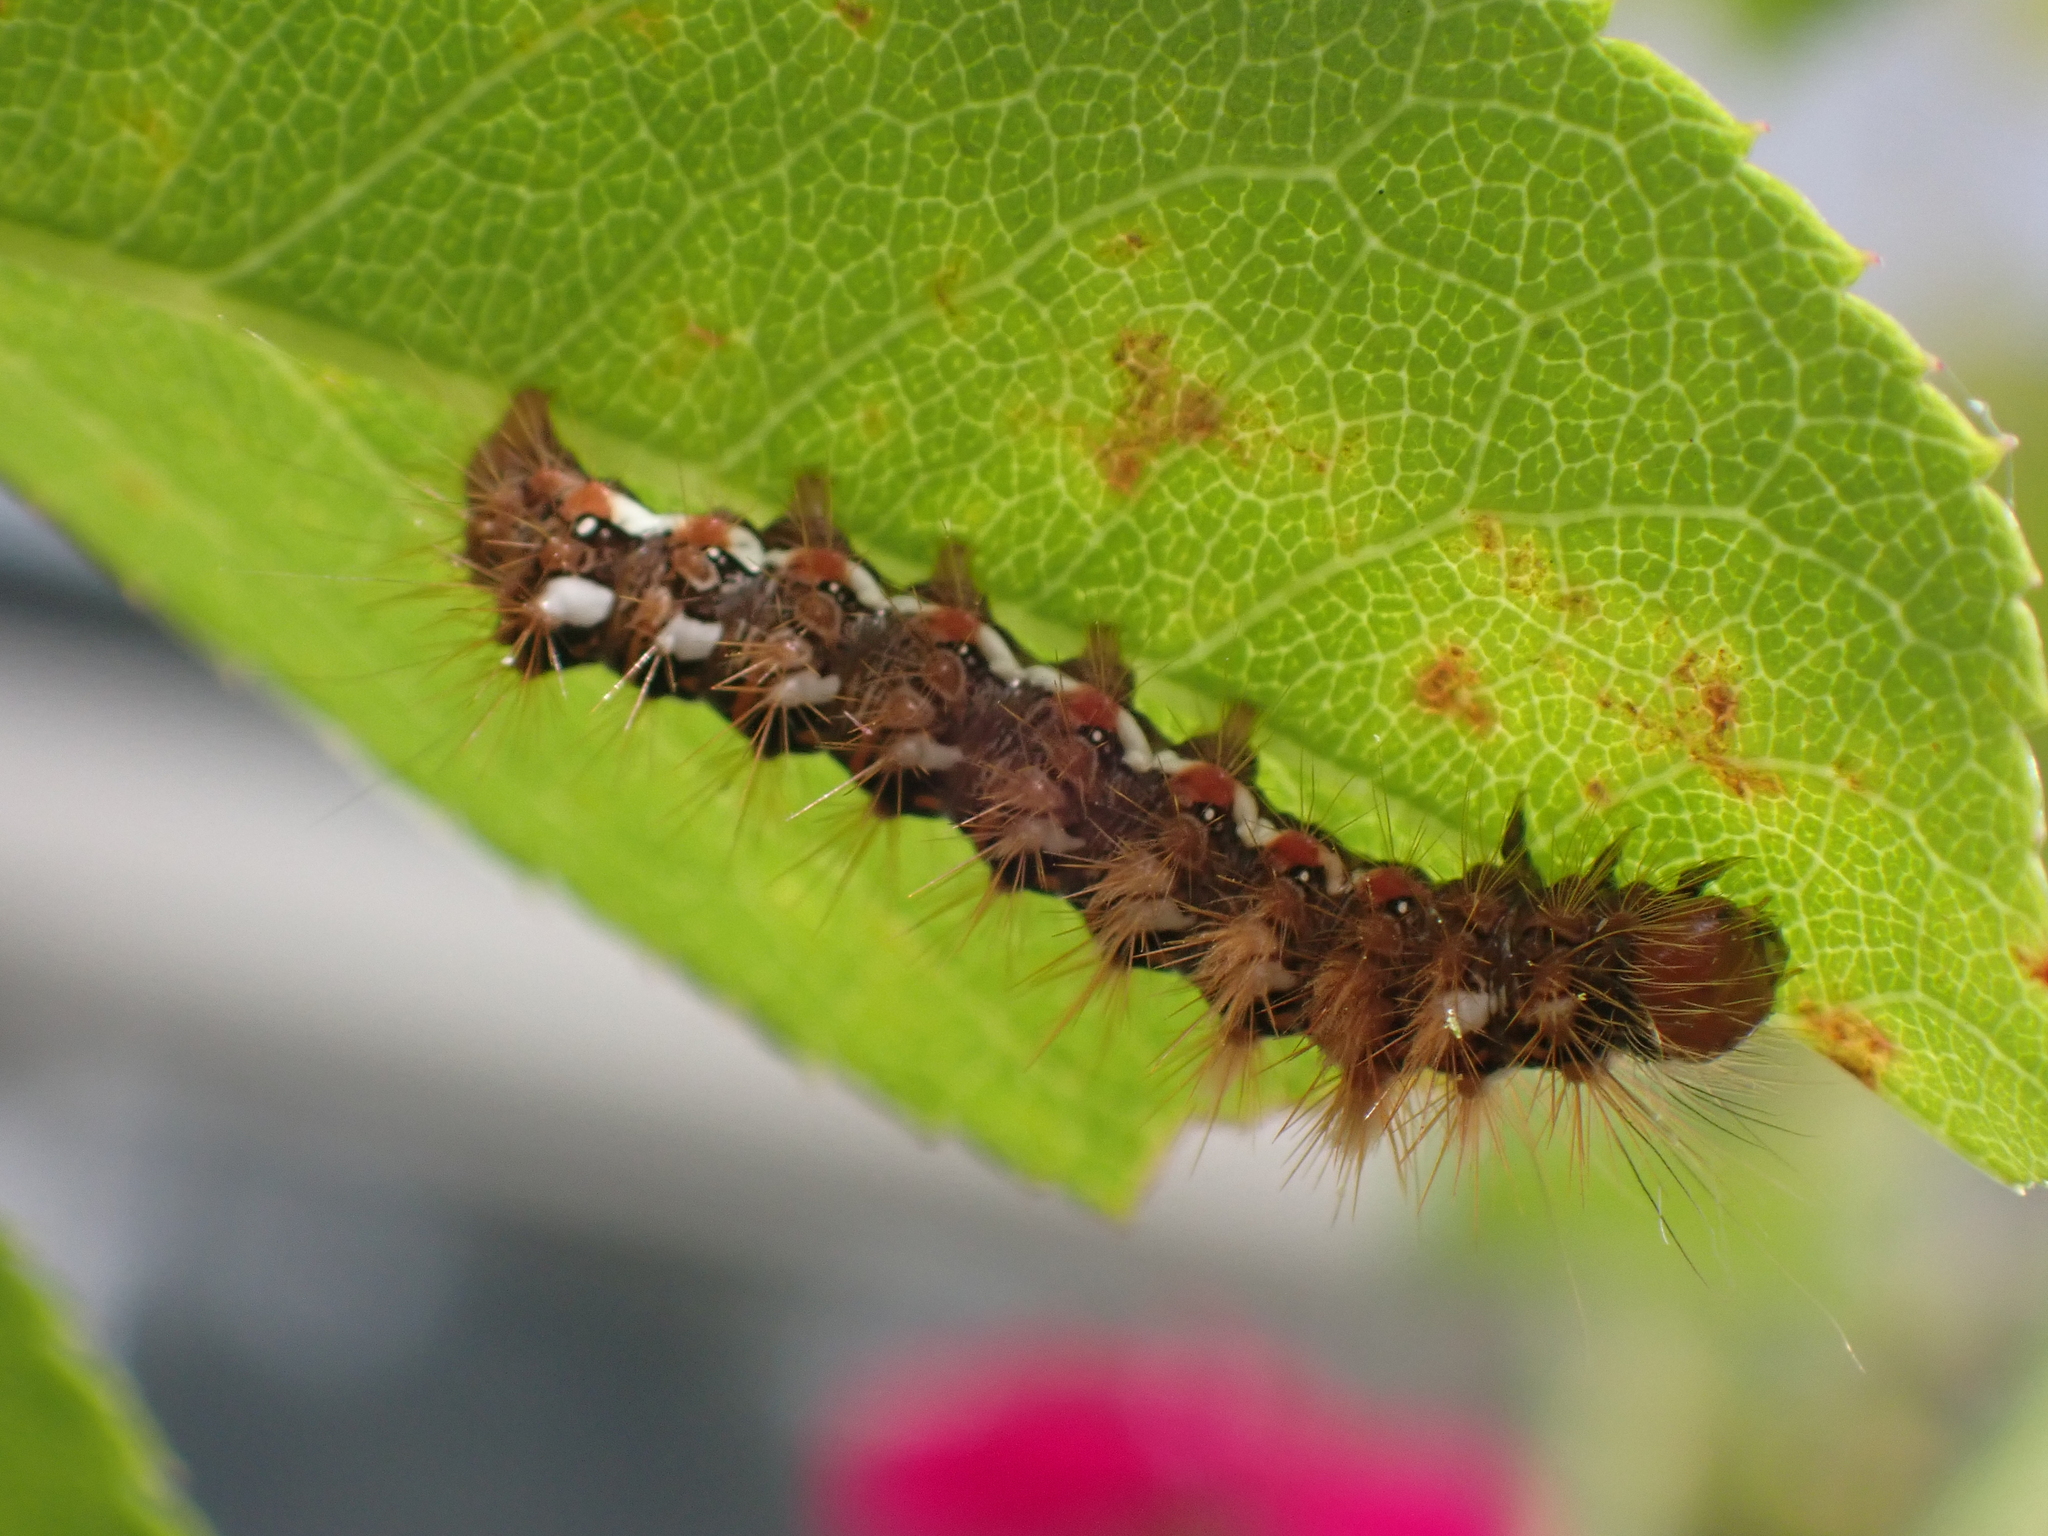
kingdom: Animalia
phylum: Arthropoda
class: Insecta
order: Lepidoptera
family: Noctuidae
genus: Acronicta
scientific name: Acronicta rumicis
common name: Knot grass
